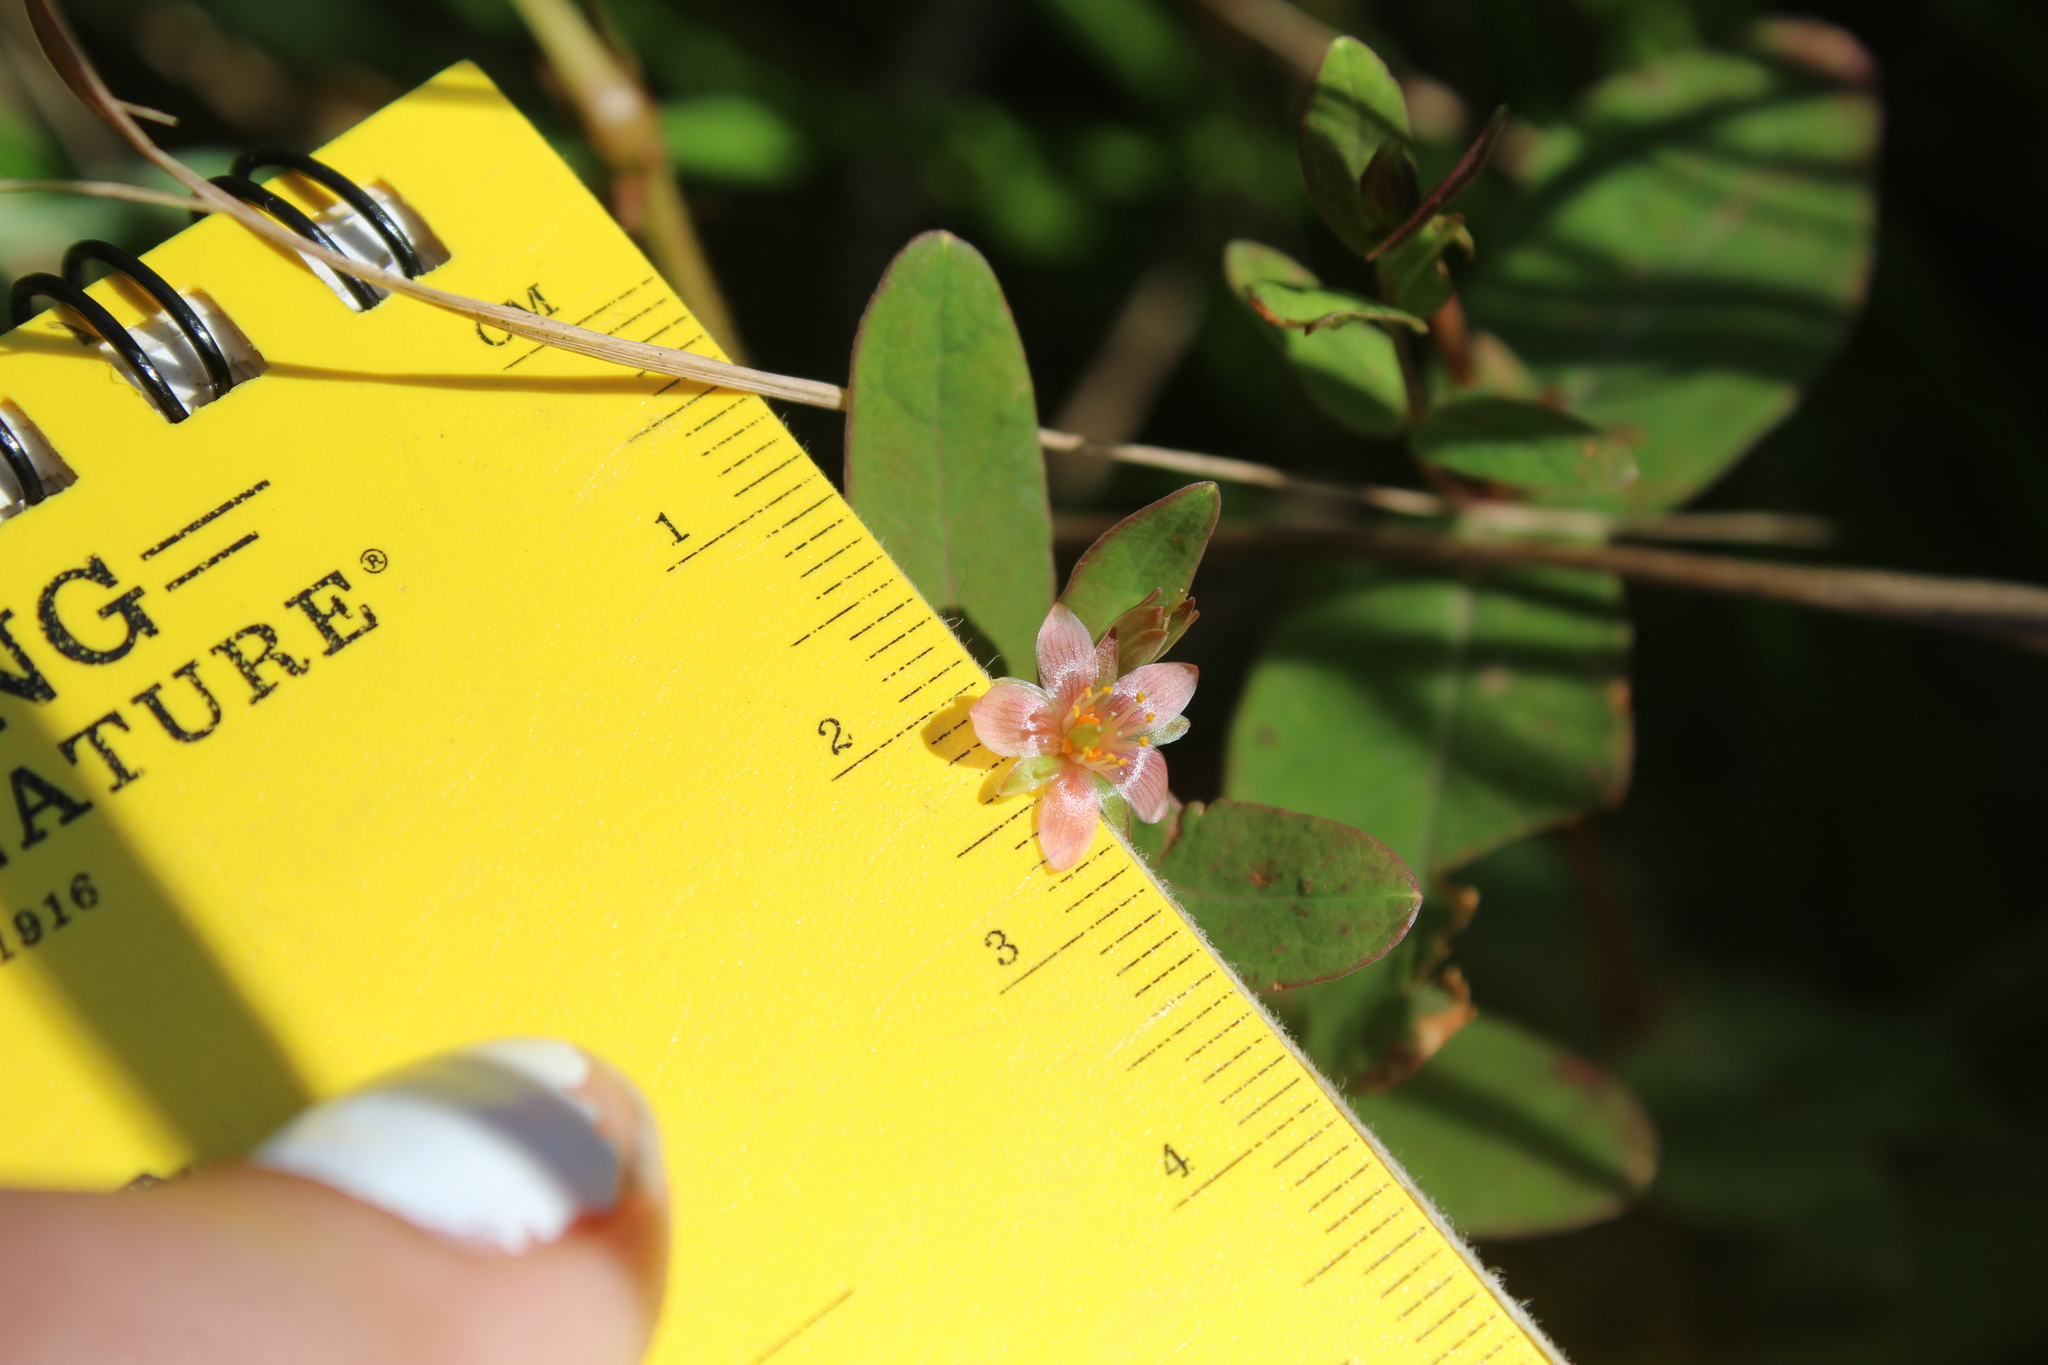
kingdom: Plantae
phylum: Tracheophyta
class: Magnoliopsida
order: Malpighiales
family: Hypericaceae
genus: Triadenum
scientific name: Triadenum virginicum
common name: Marsh st. john's-wort
